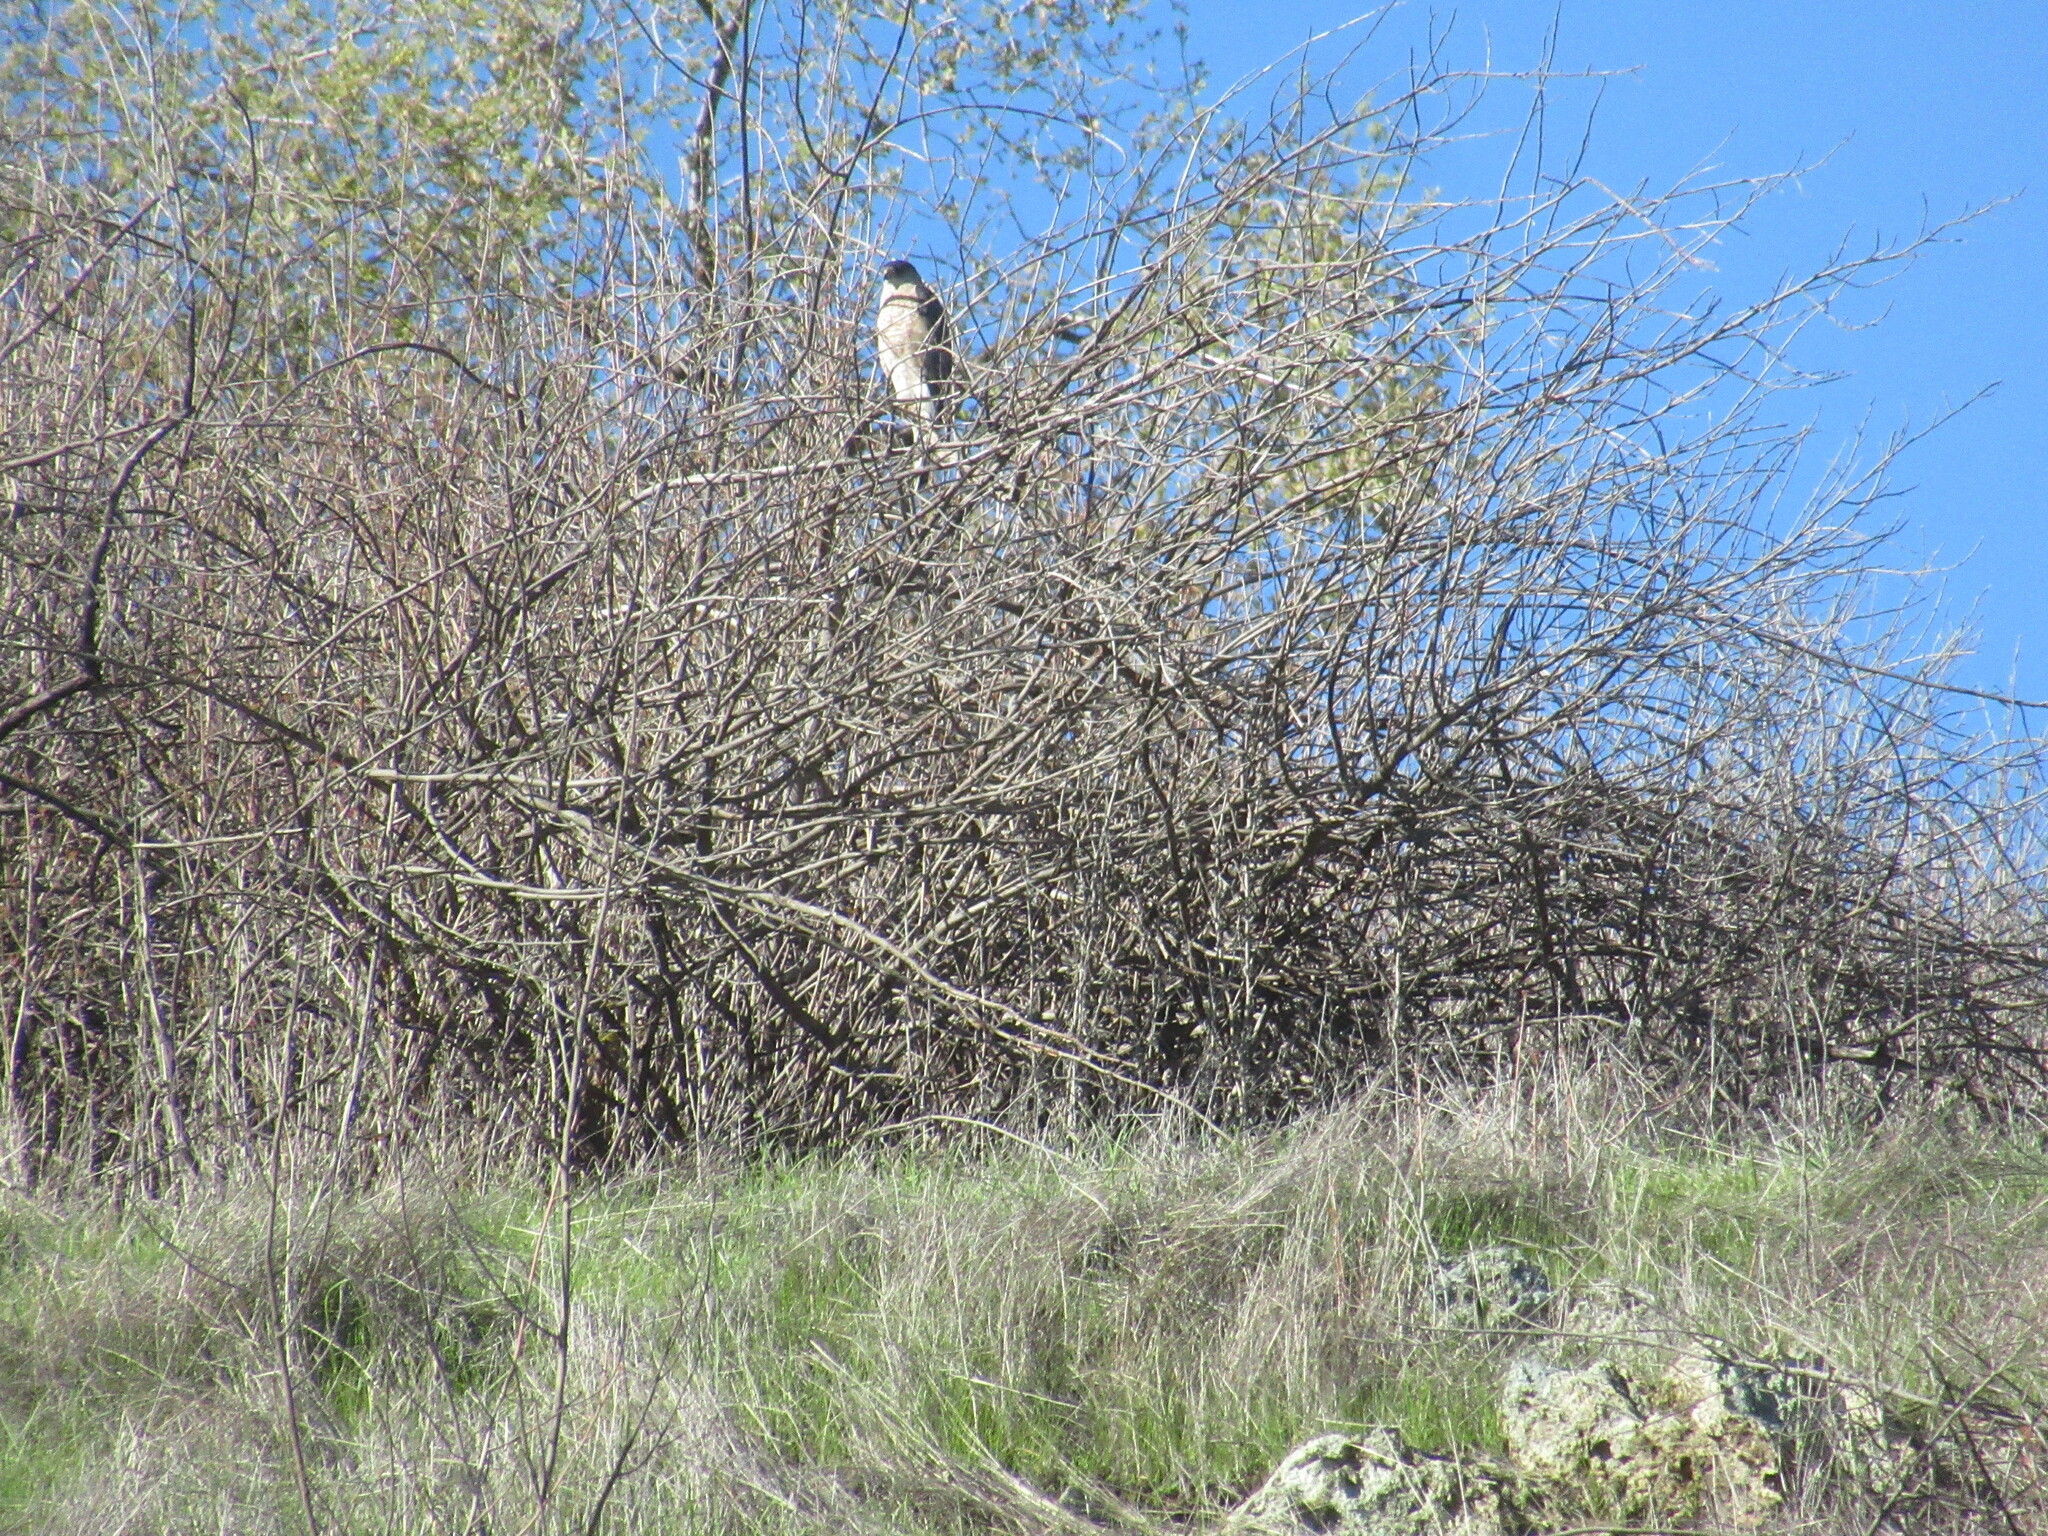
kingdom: Animalia
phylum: Chordata
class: Aves
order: Accipitriformes
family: Accipitridae
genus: Accipiter
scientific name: Accipiter cooperii
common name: Cooper's hawk
